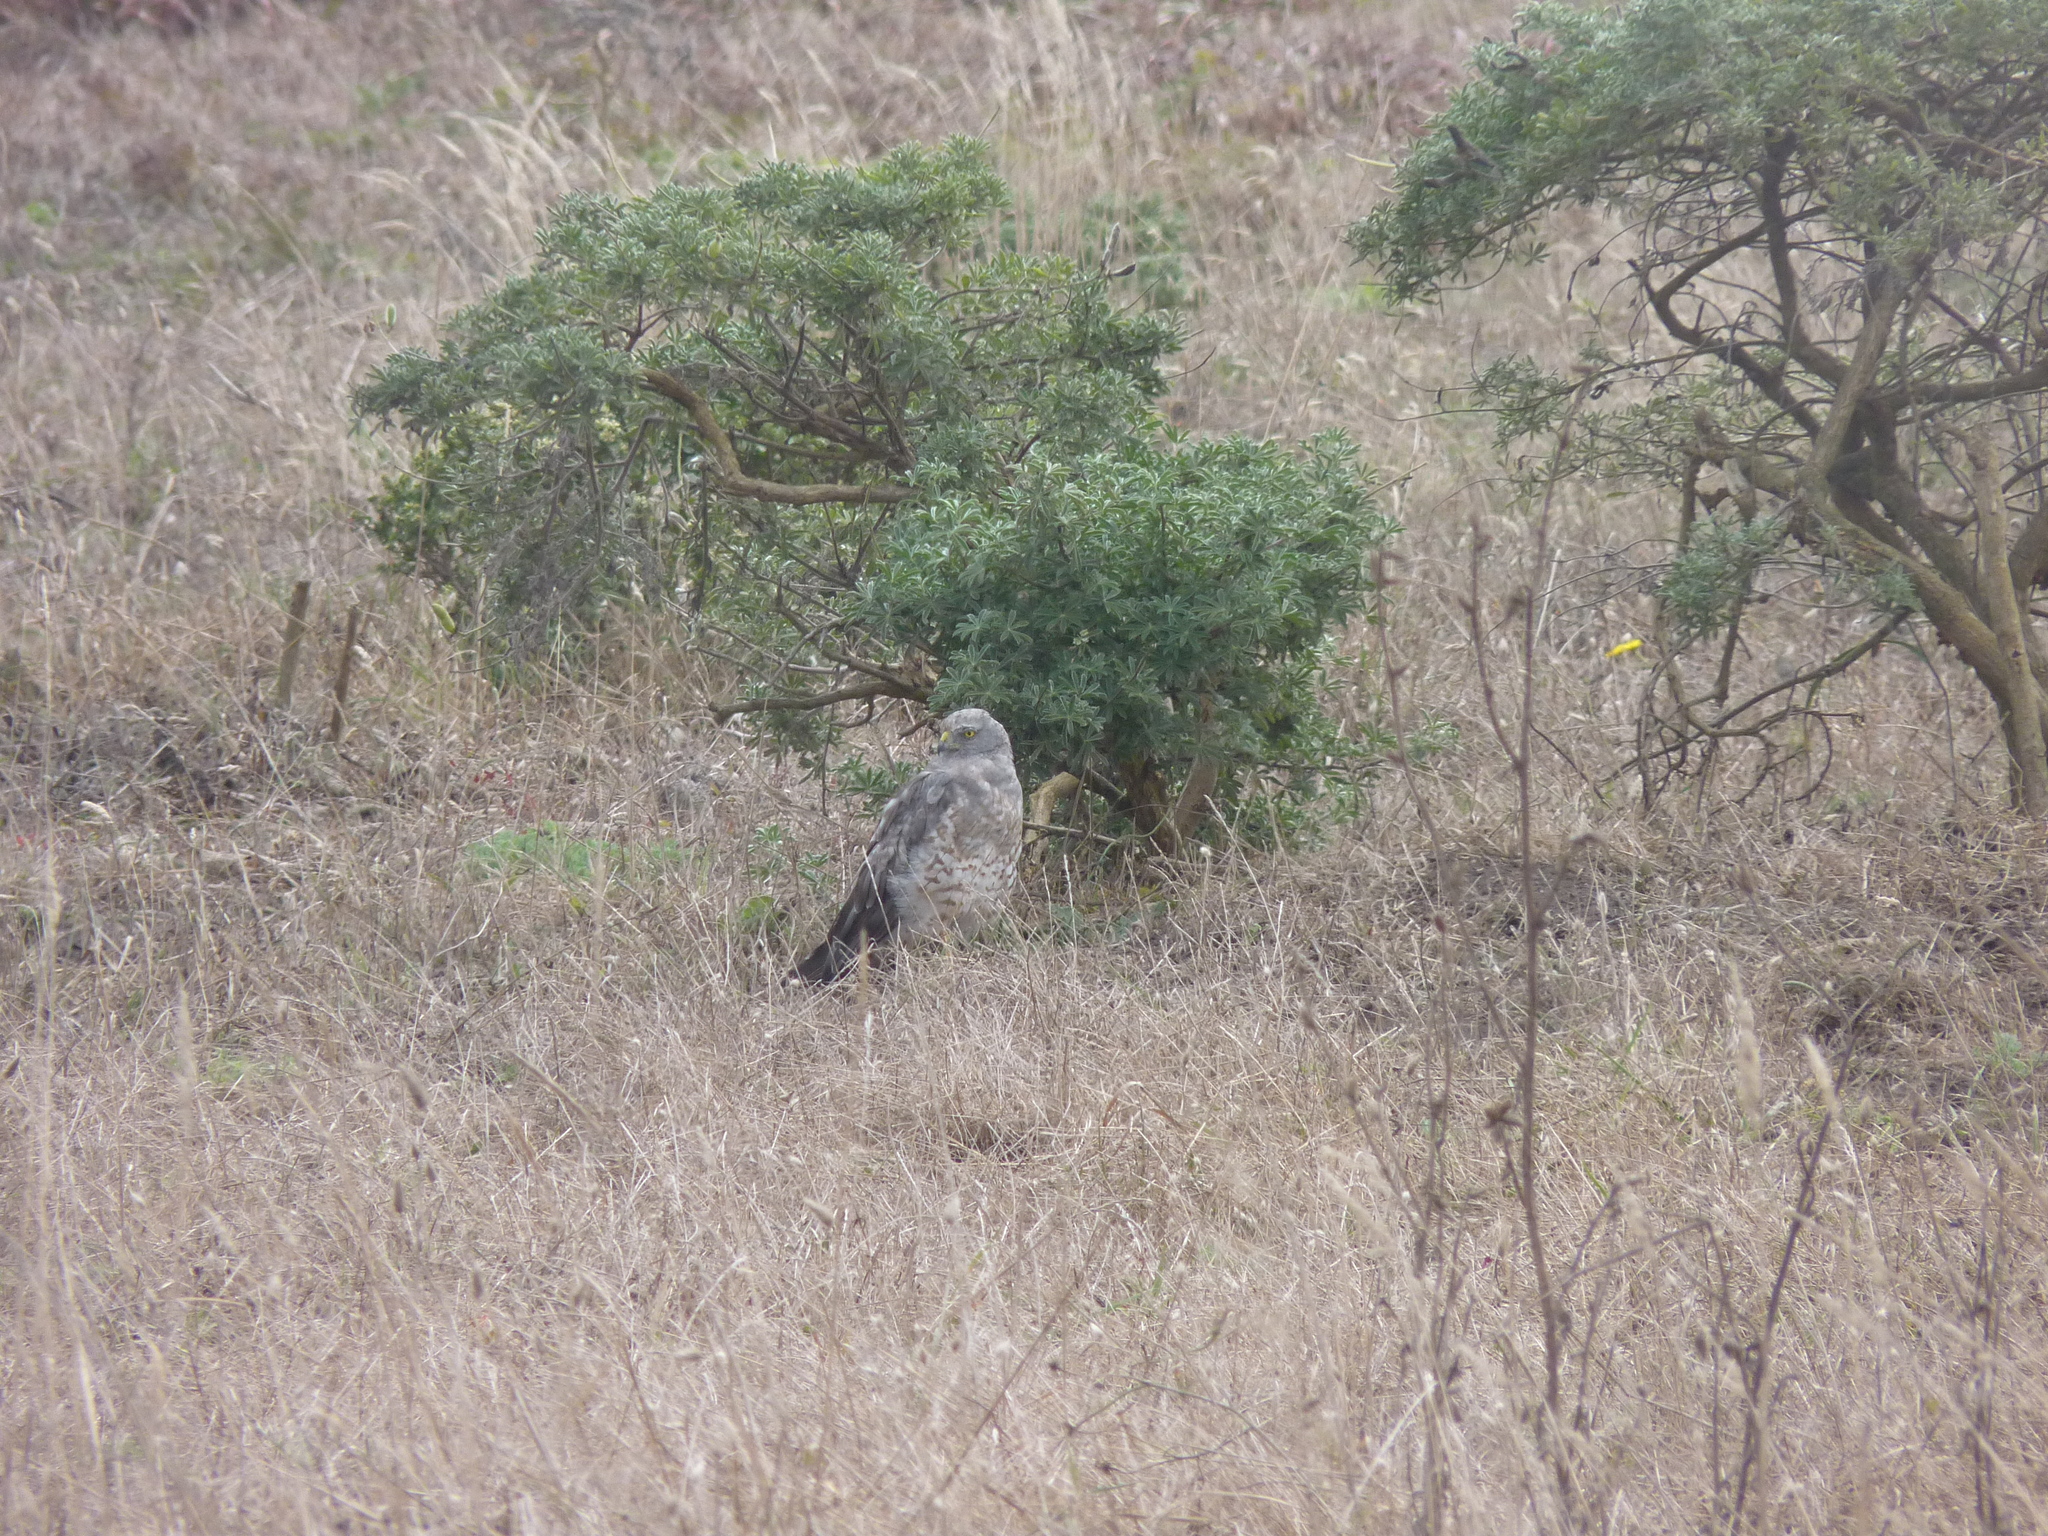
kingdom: Animalia
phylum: Chordata
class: Aves
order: Accipitriformes
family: Accipitridae
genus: Circus
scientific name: Circus cyaneus
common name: Hen harrier
